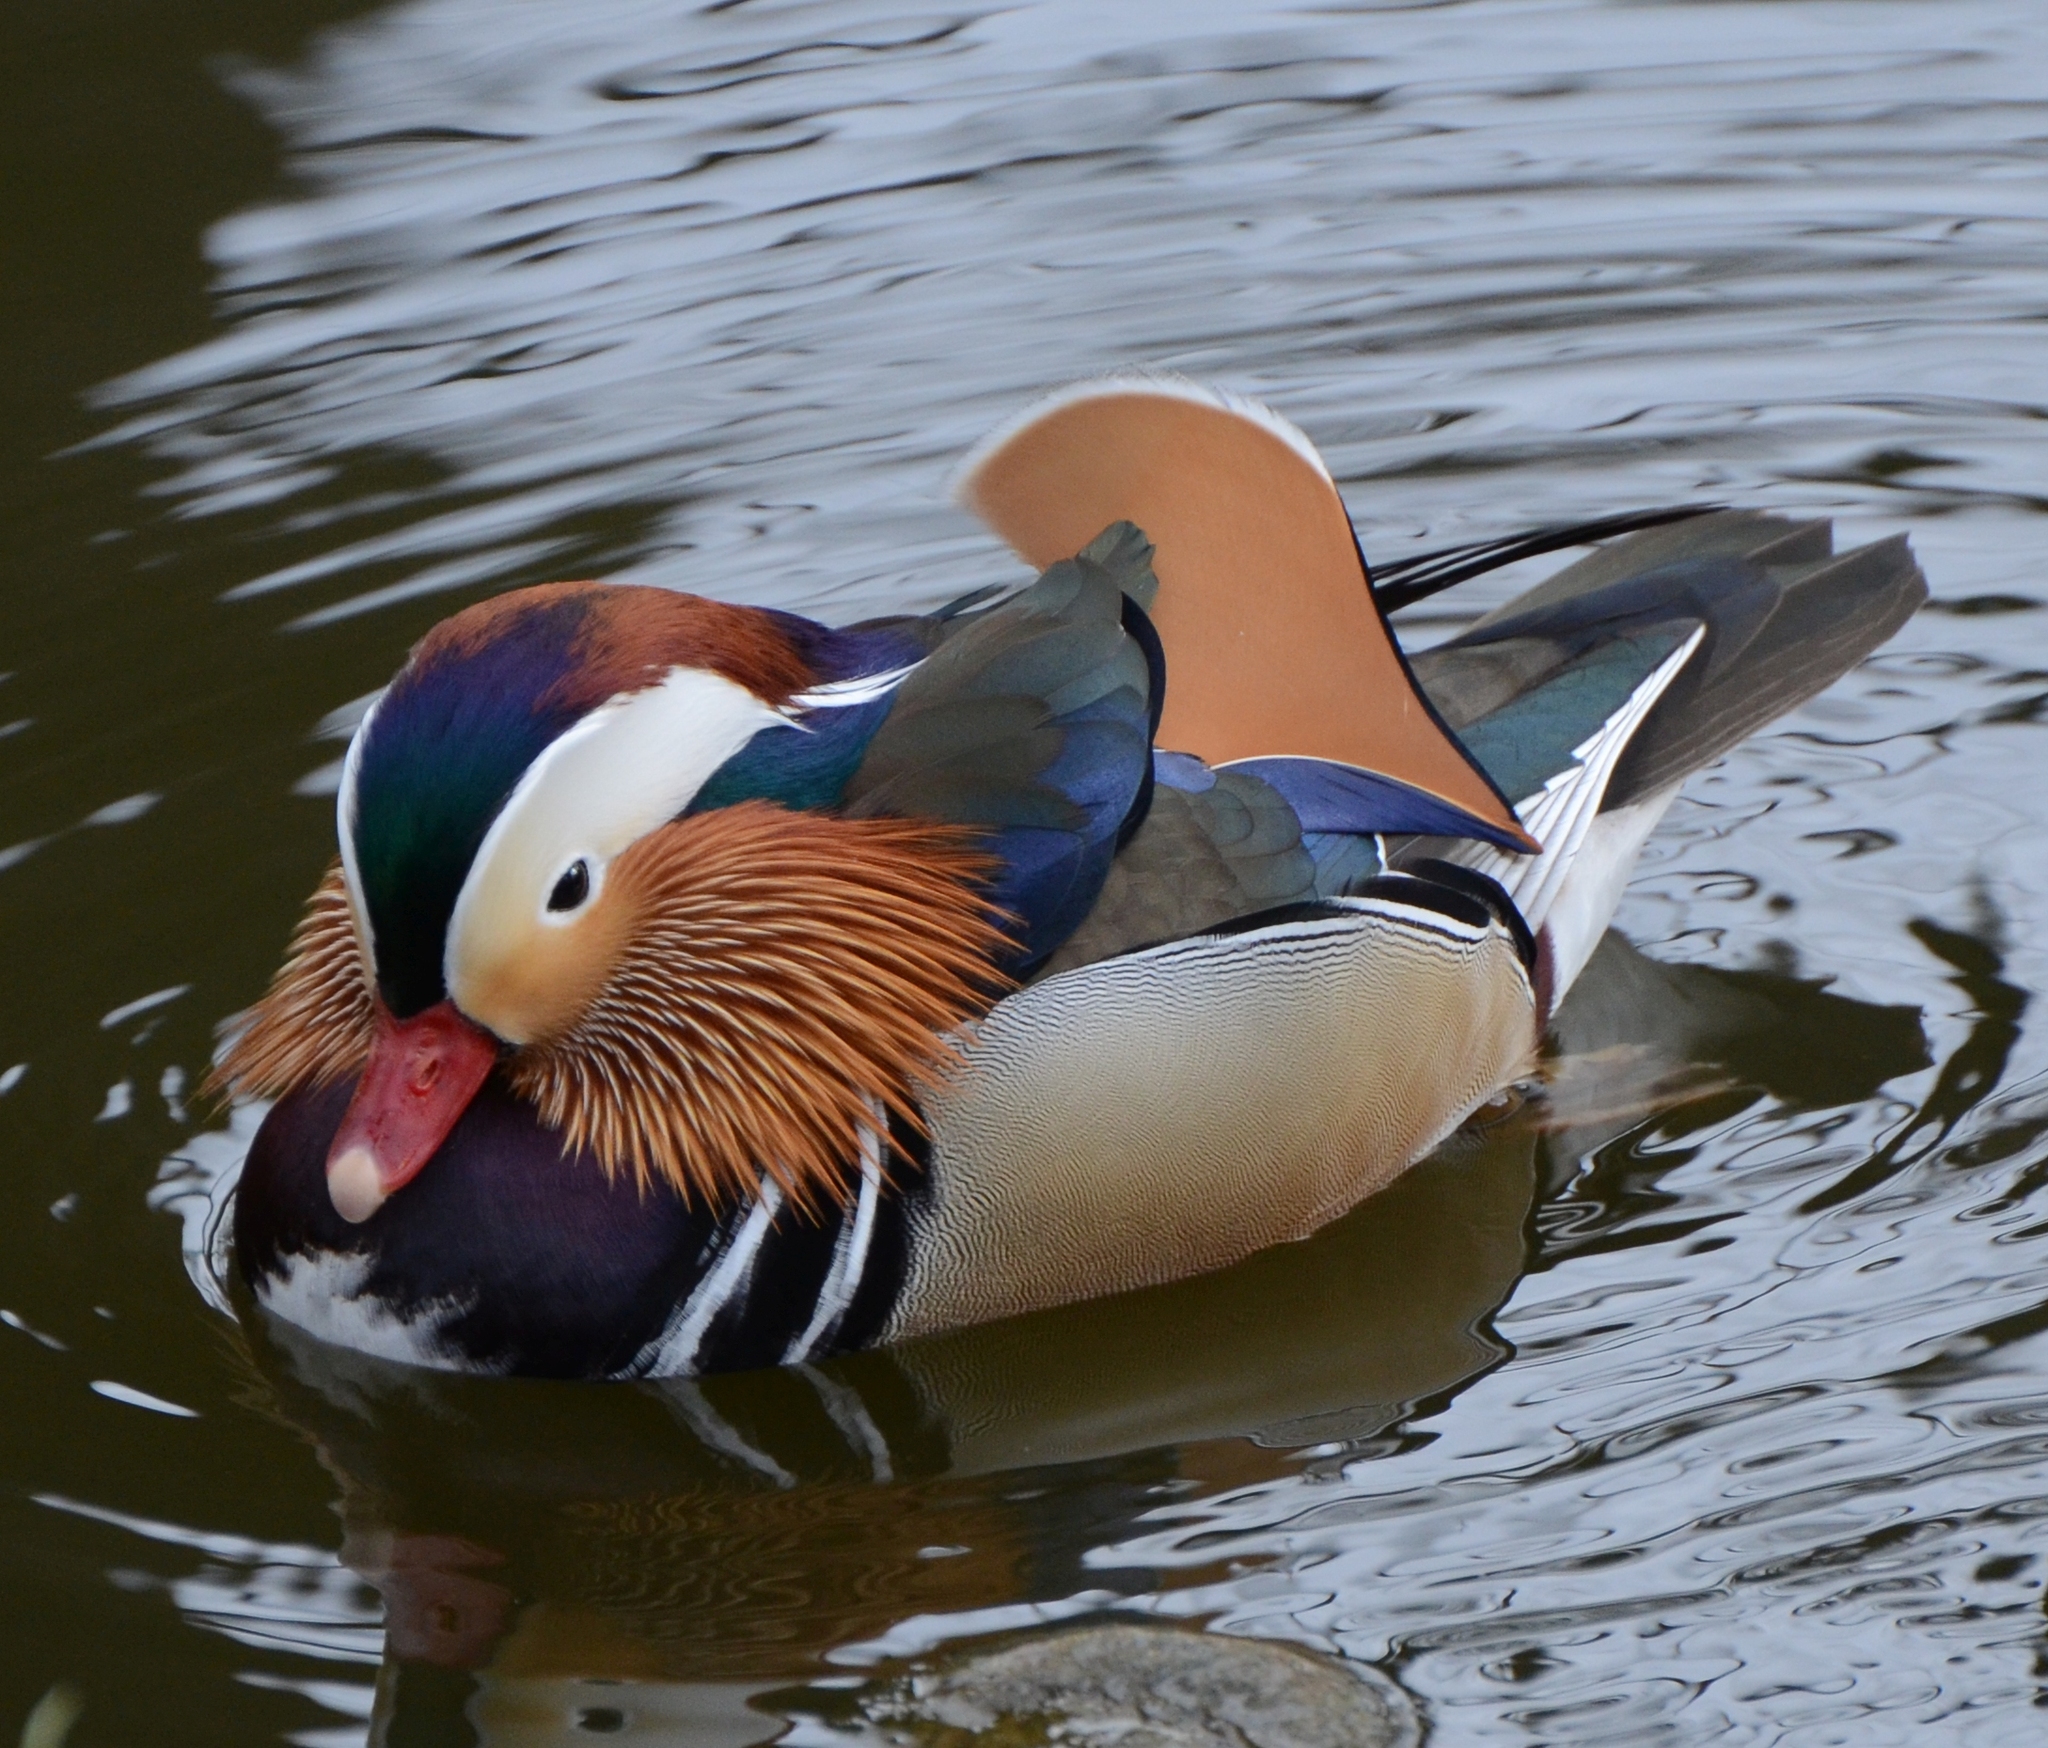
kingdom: Animalia
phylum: Chordata
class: Aves
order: Anseriformes
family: Anatidae
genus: Aix
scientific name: Aix galericulata
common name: Mandarin duck
